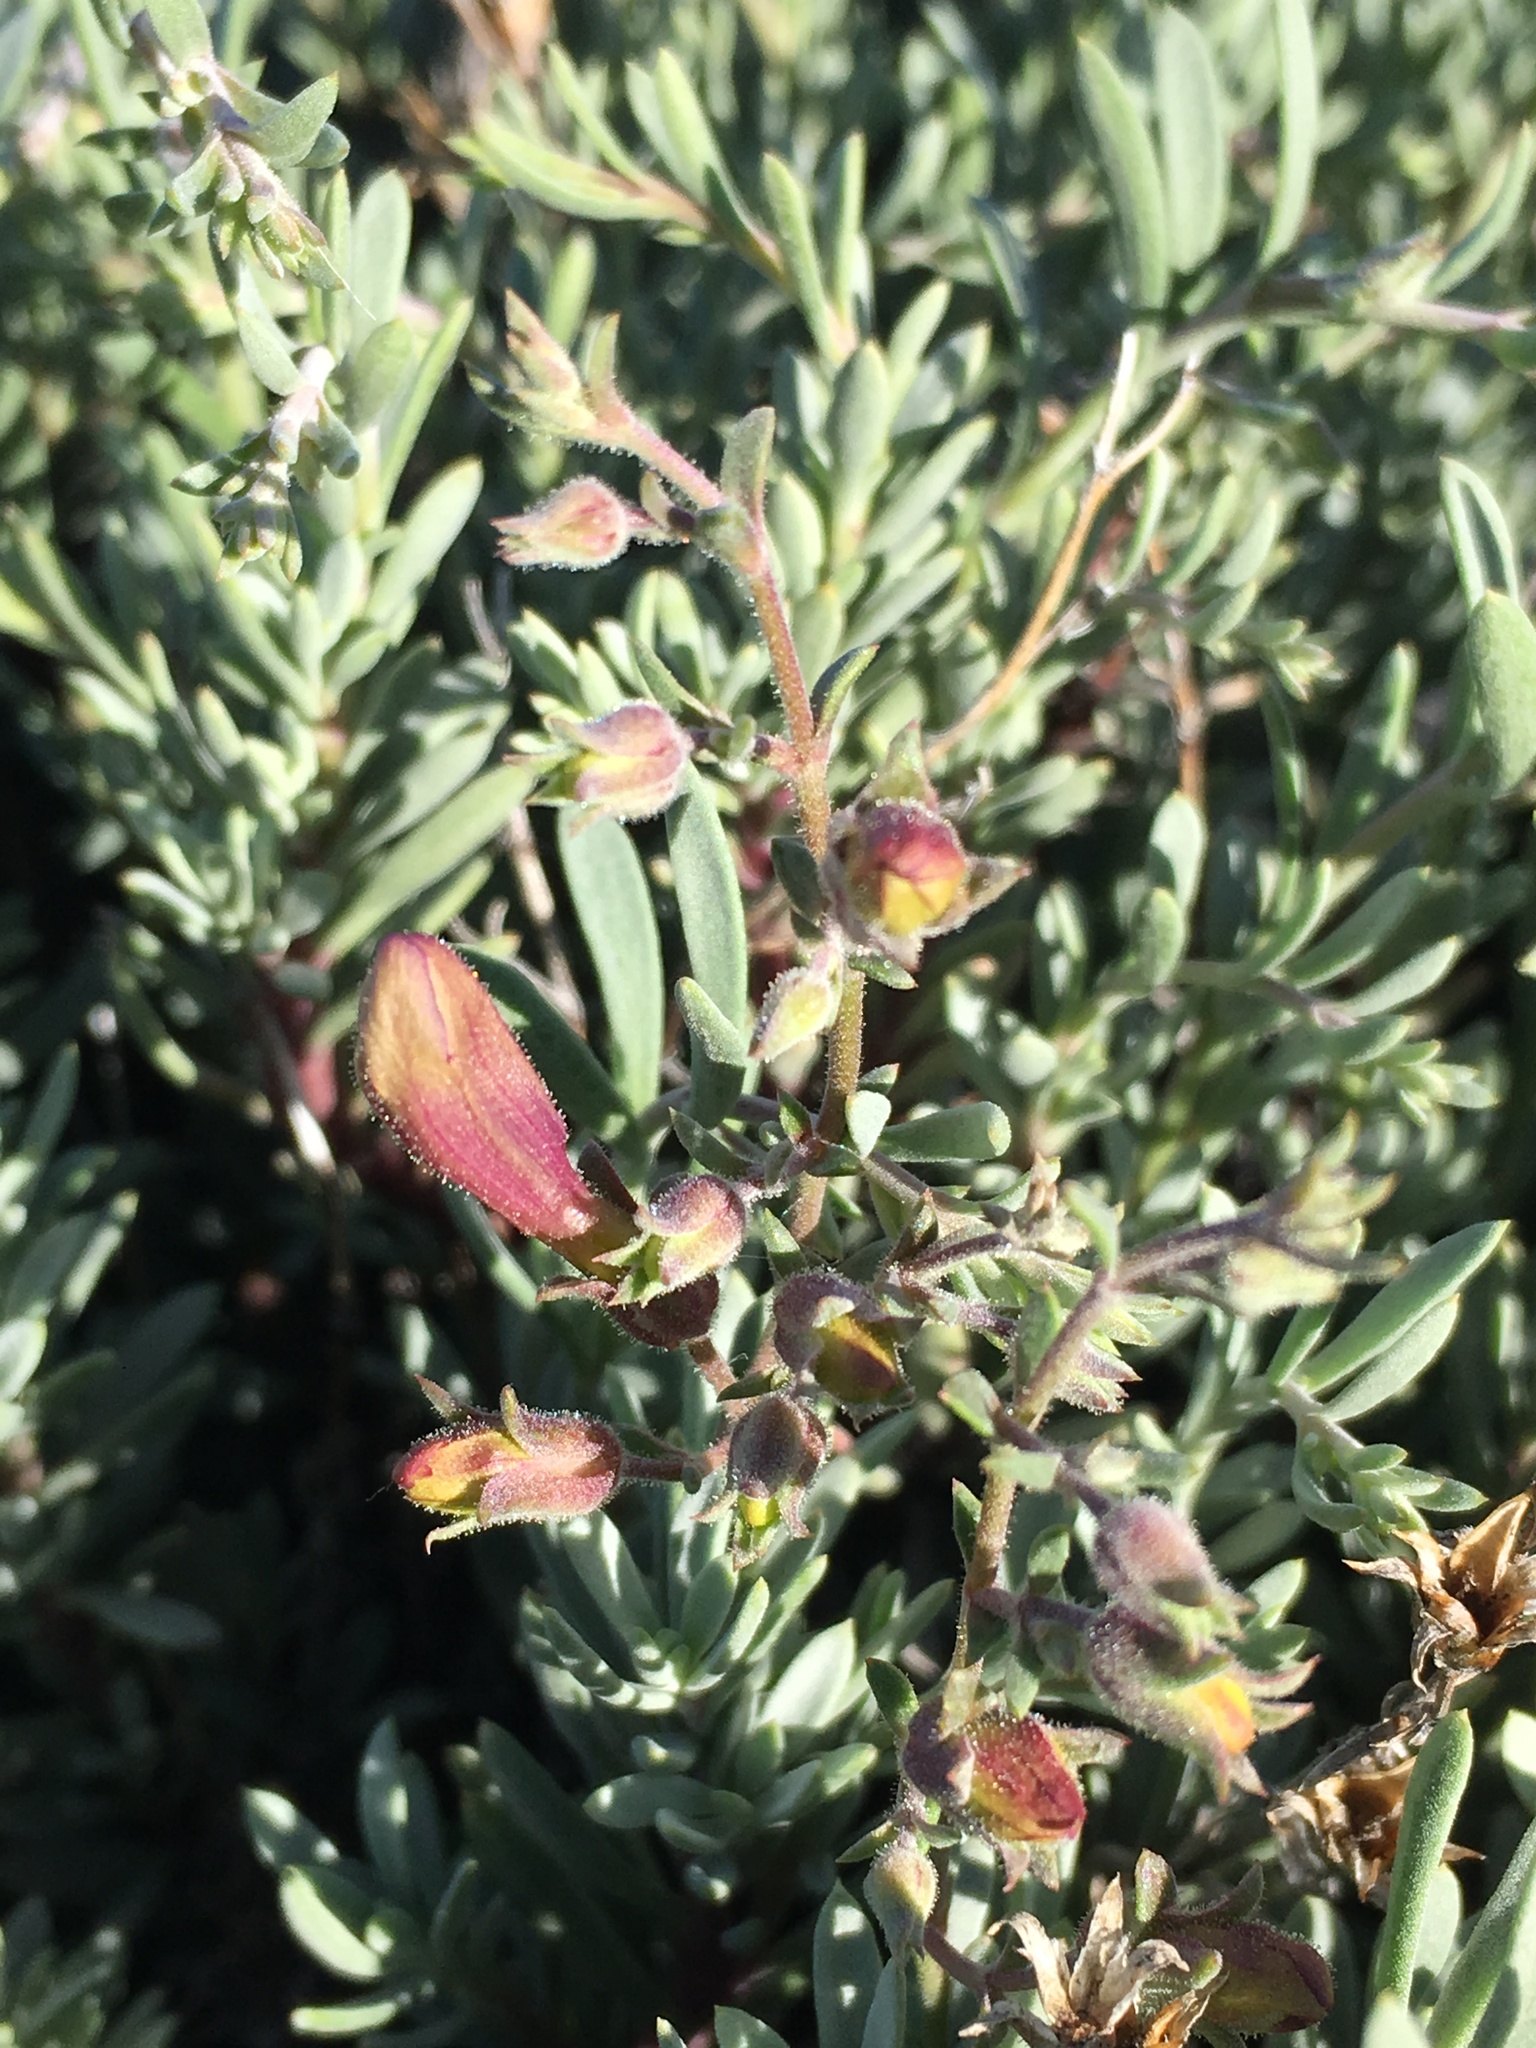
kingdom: Plantae
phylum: Tracheophyta
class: Magnoliopsida
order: Lamiales
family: Plantaginaceae
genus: Penstemon
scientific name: Penstemon californicus
